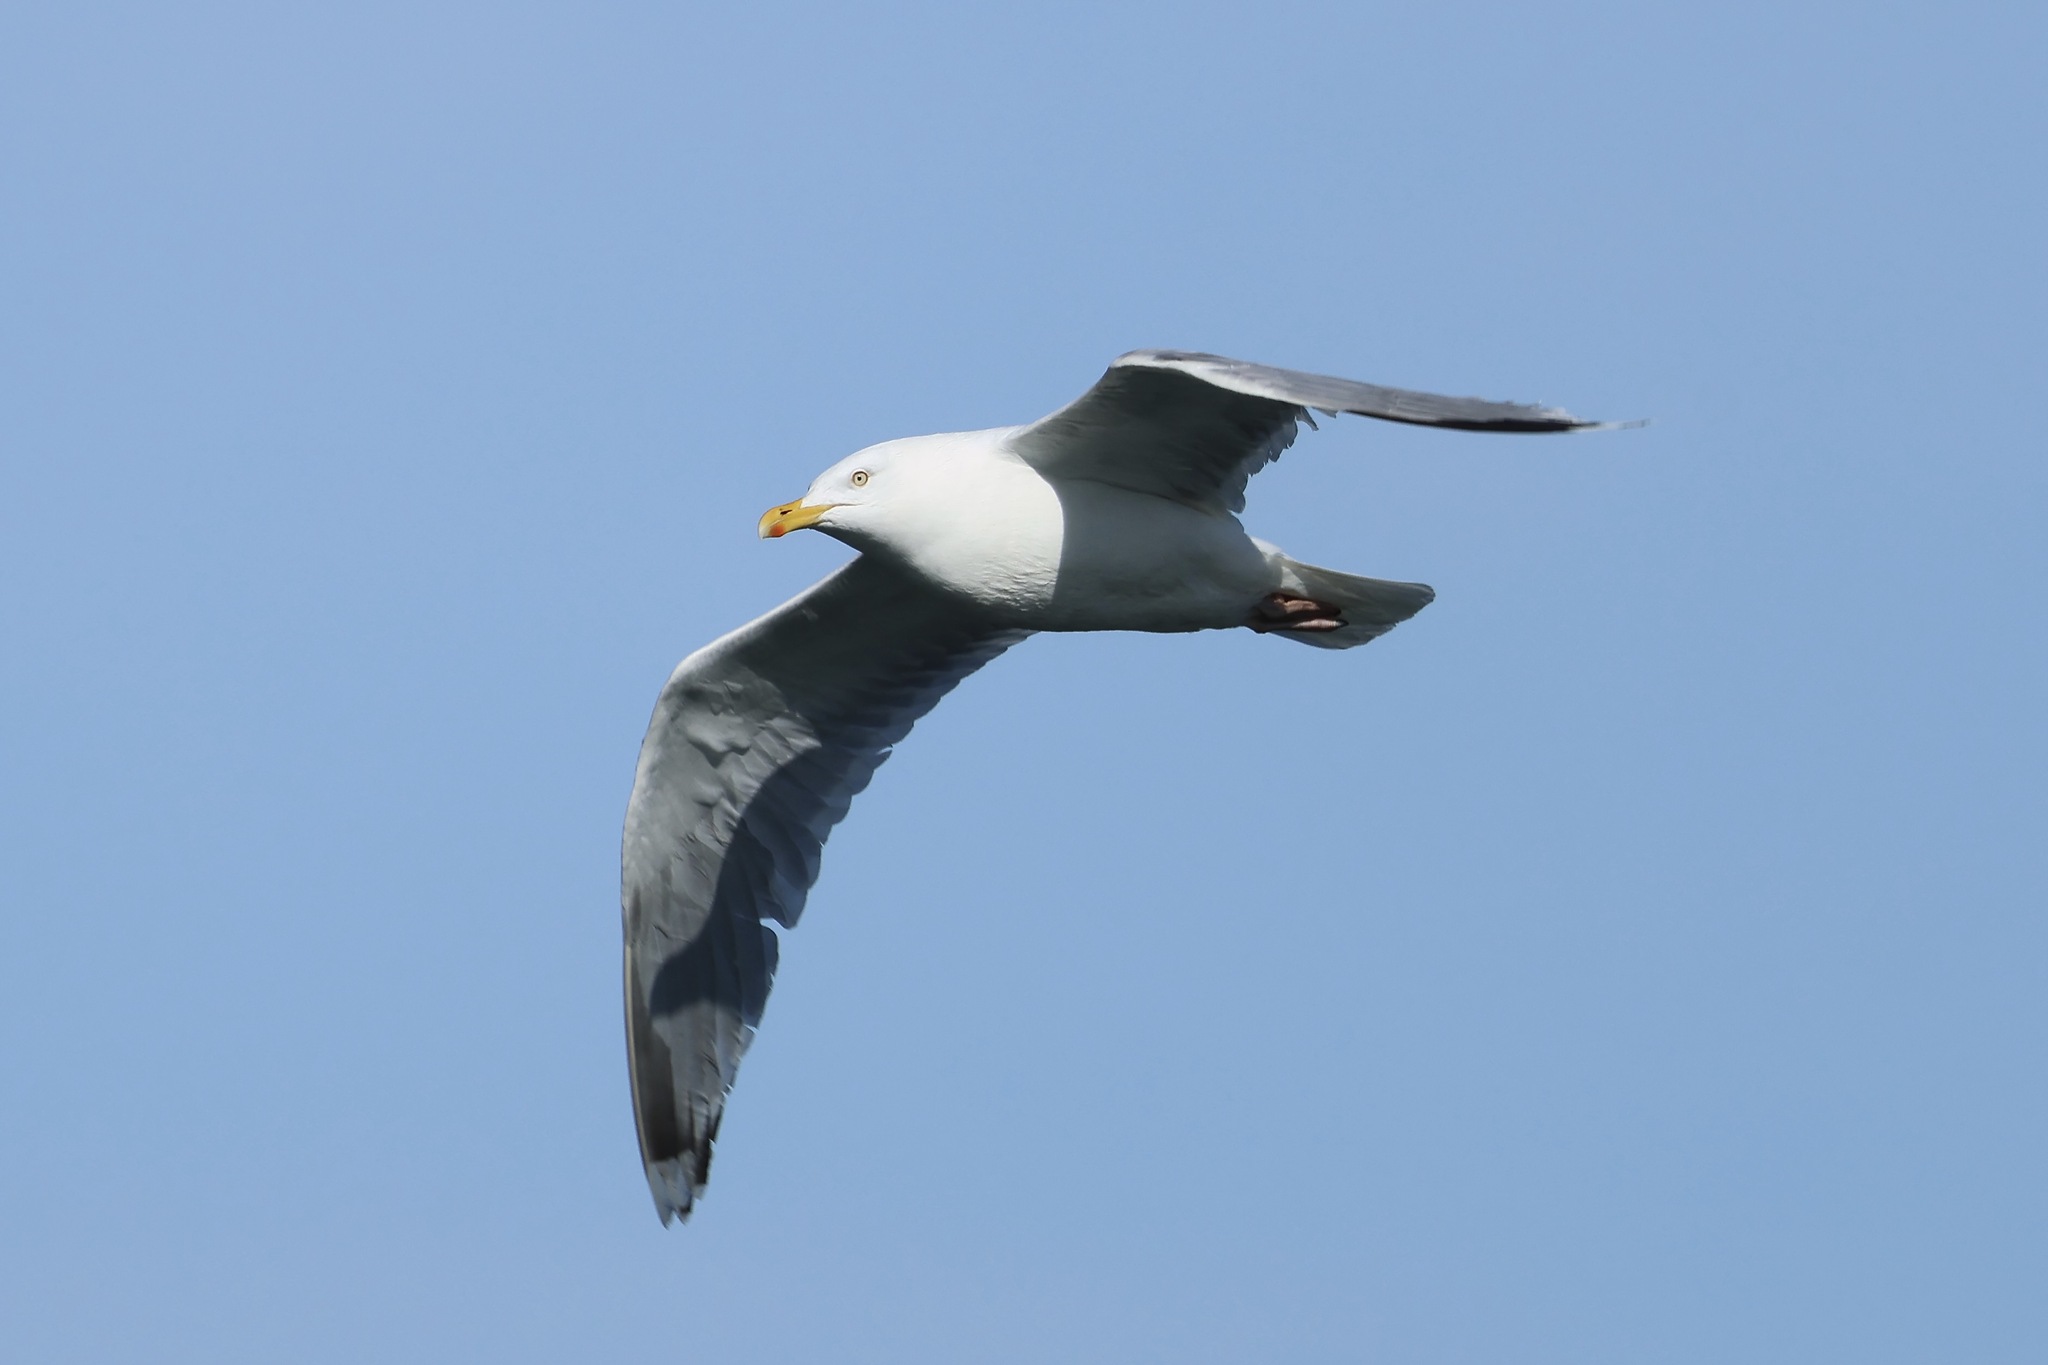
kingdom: Animalia
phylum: Chordata
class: Aves
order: Charadriiformes
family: Laridae
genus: Larus
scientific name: Larus argentatus
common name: Herring gull
